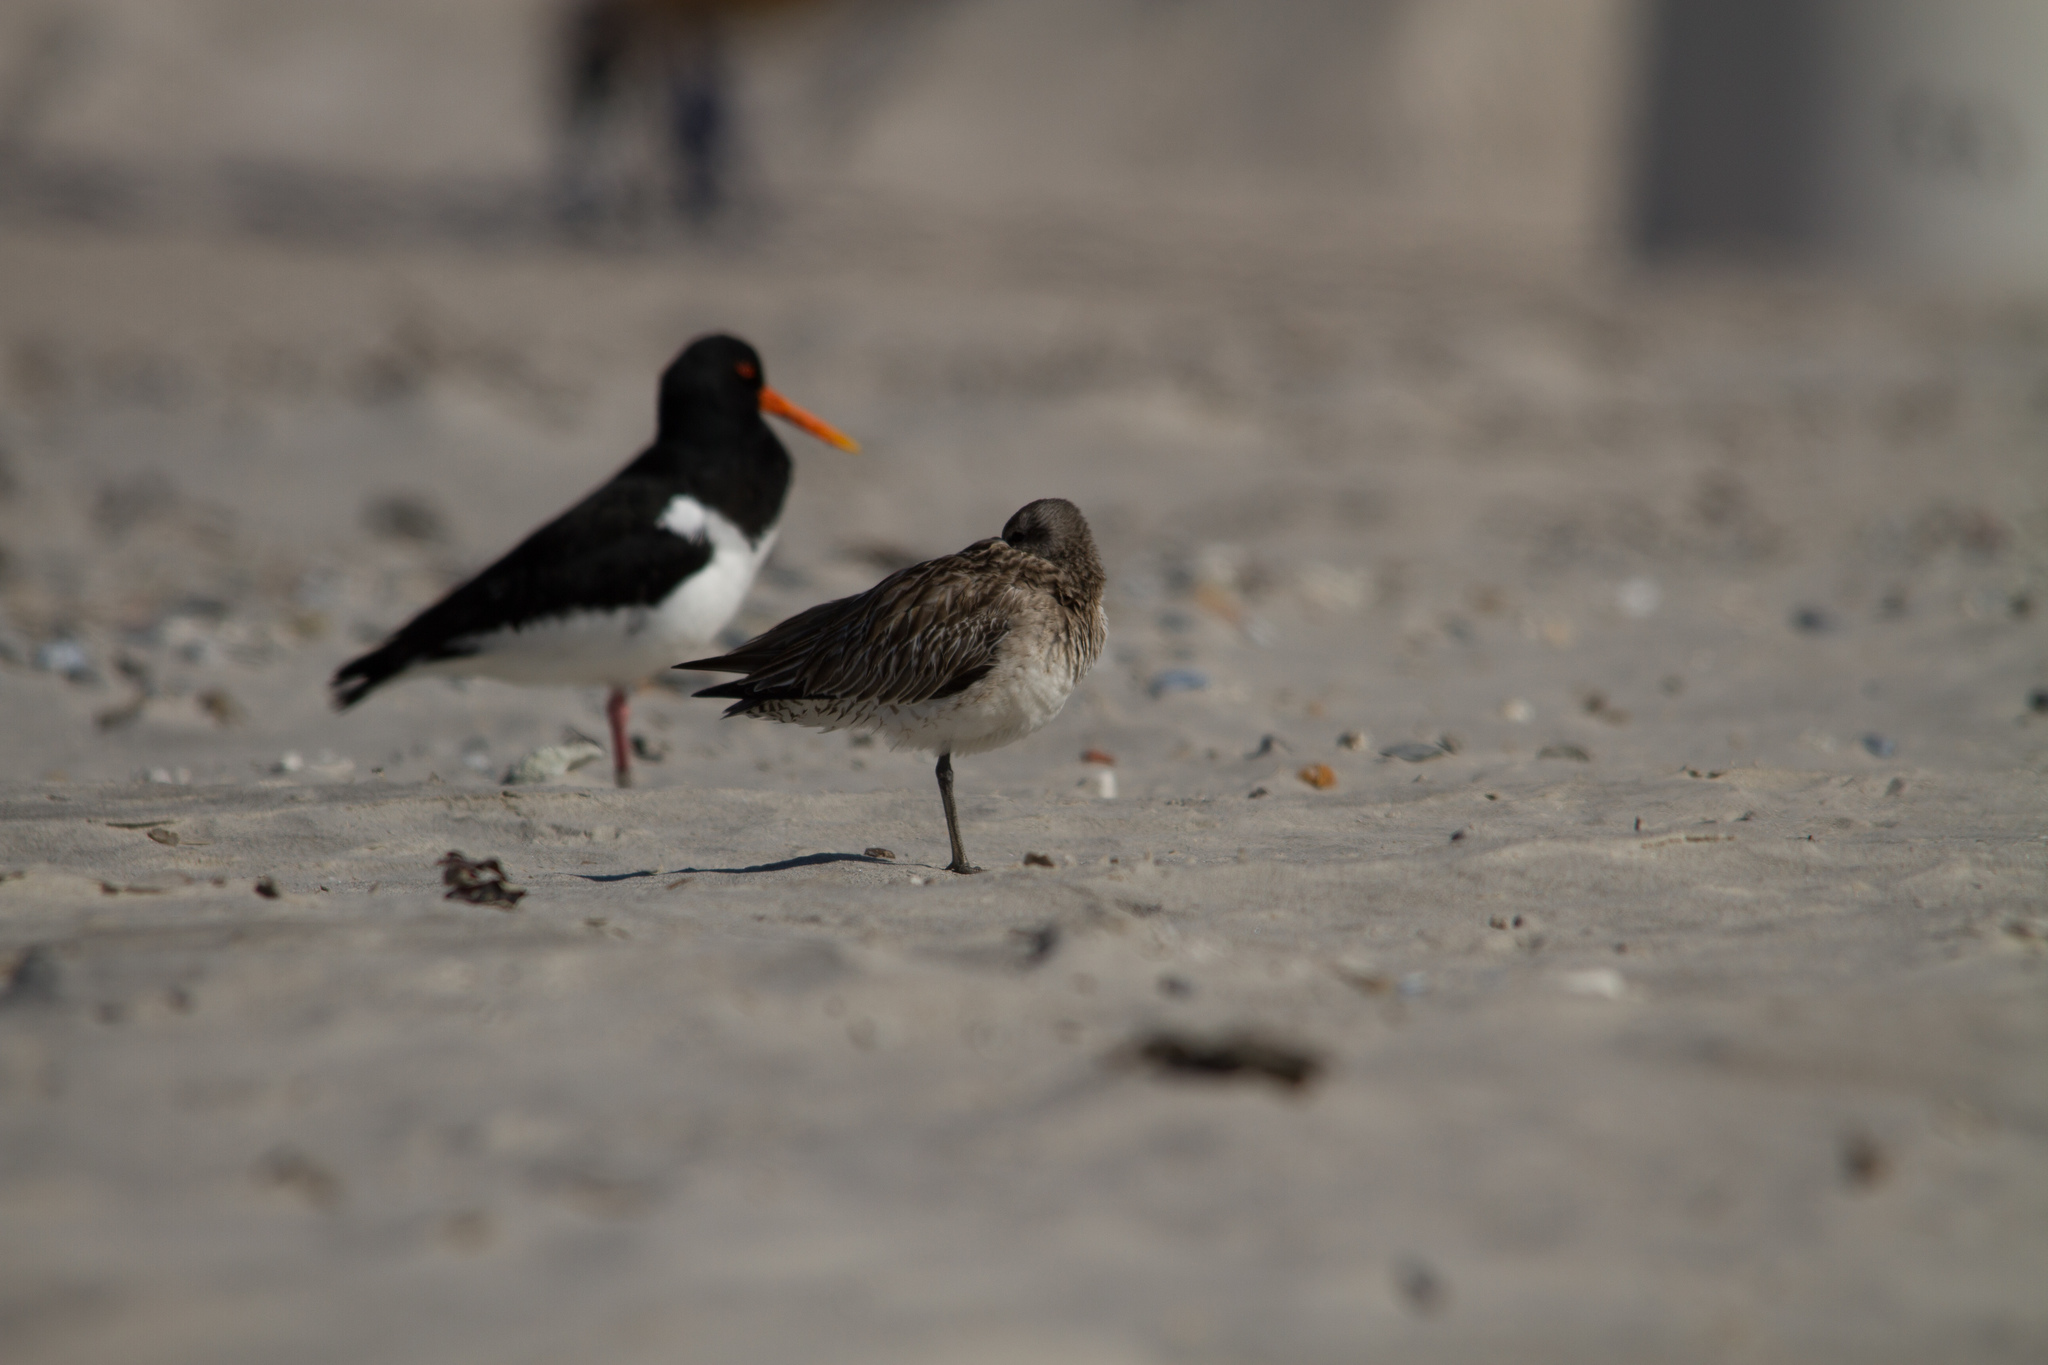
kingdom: Animalia
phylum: Chordata
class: Aves
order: Charadriiformes
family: Scolopacidae
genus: Limosa
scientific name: Limosa lapponica
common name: Bar-tailed godwit
